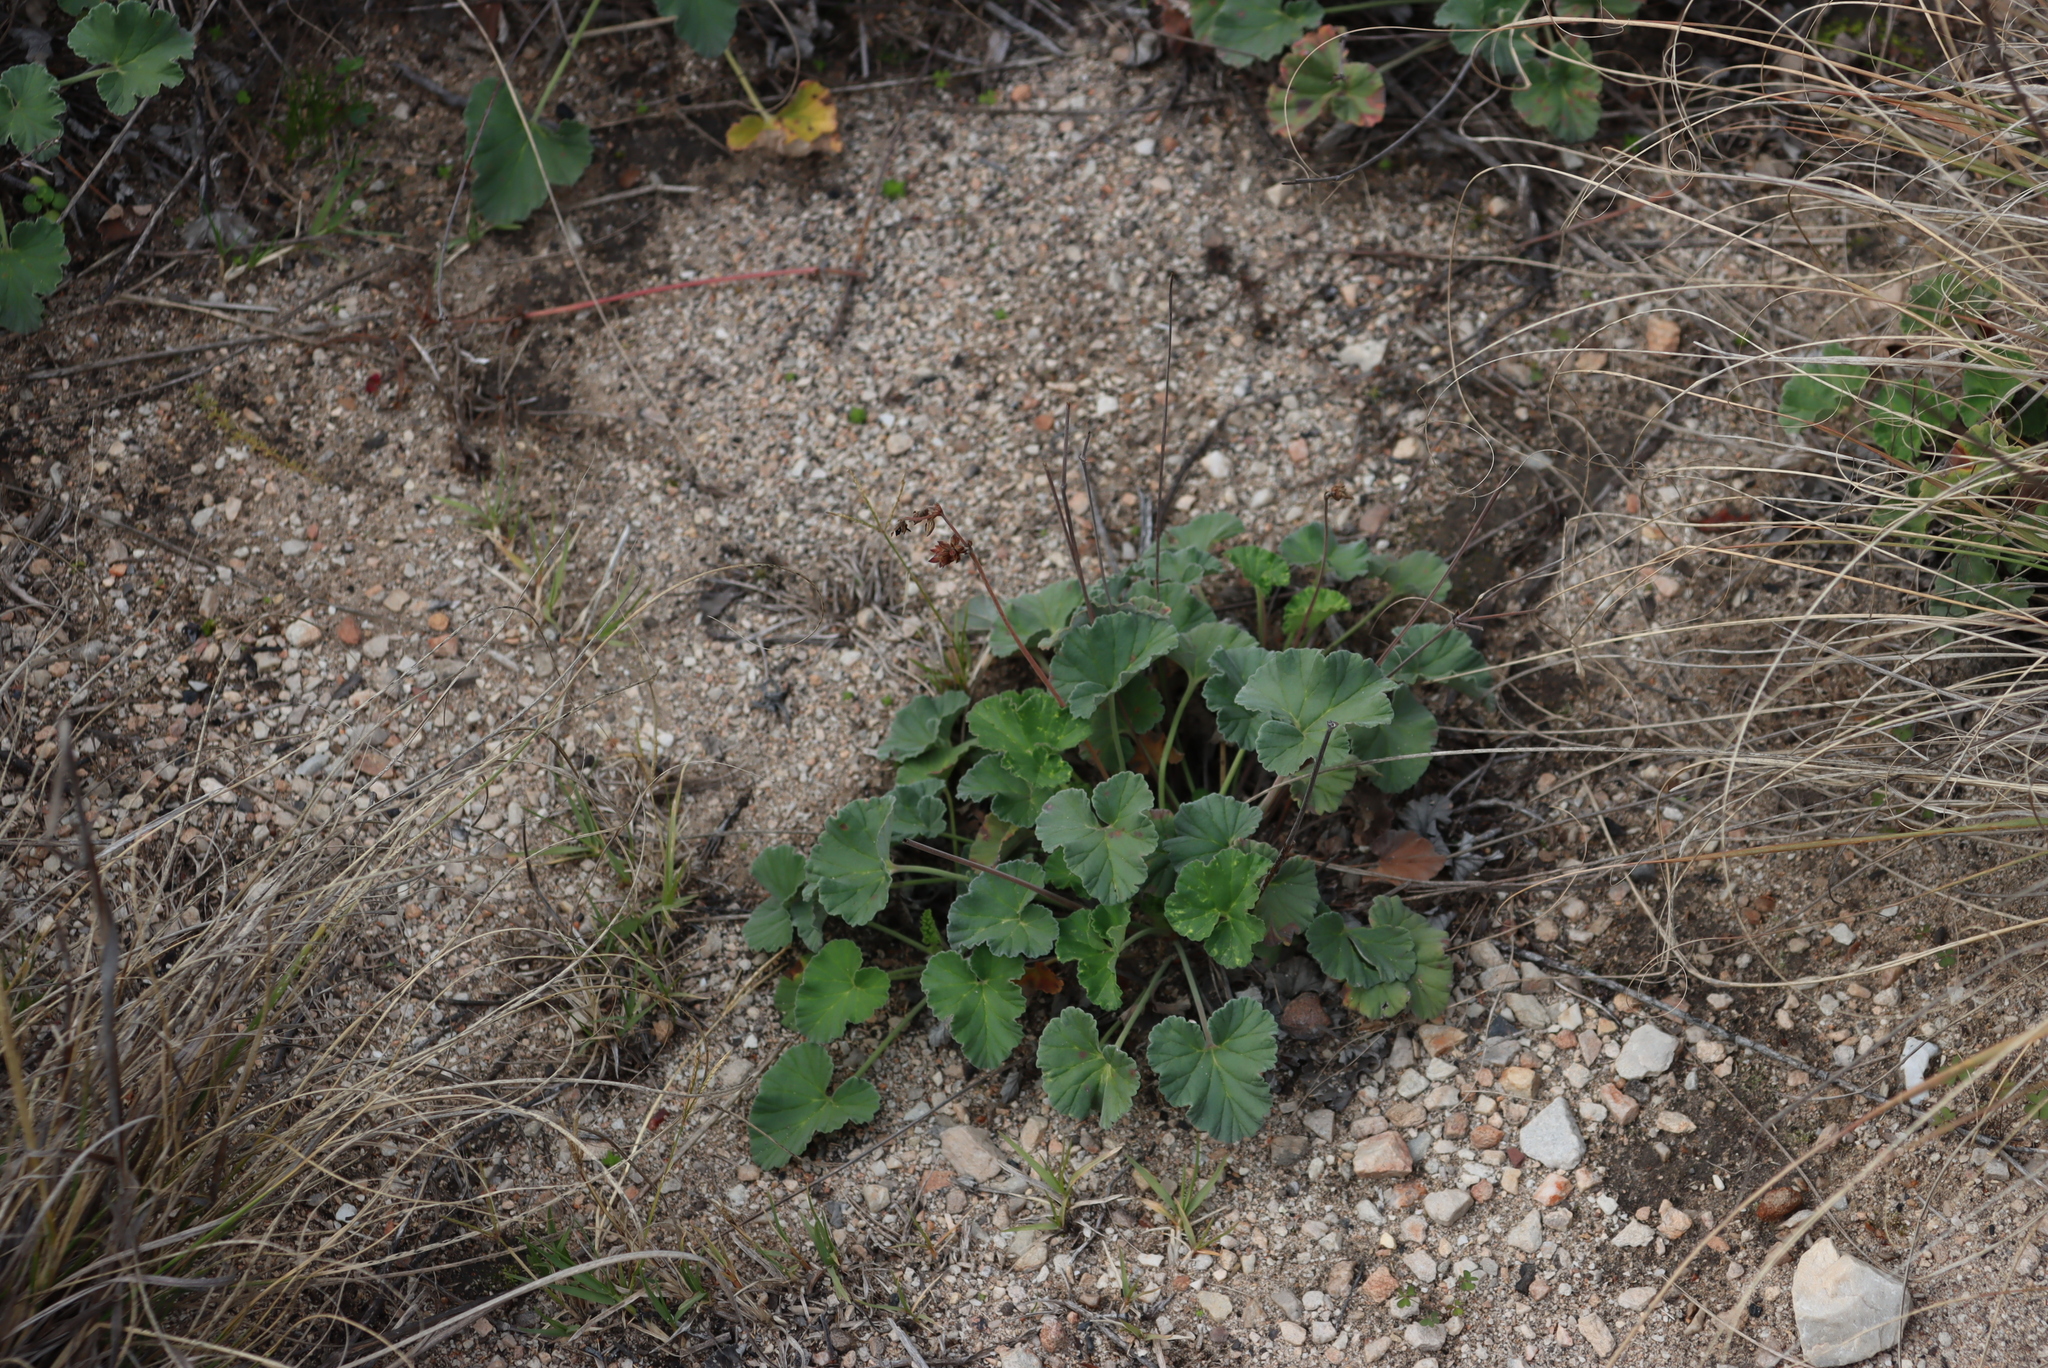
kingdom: Plantae
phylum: Tracheophyta
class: Magnoliopsida
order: Geraniales
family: Geraniaceae
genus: Pelargonium
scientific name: Pelargonium sidoides
